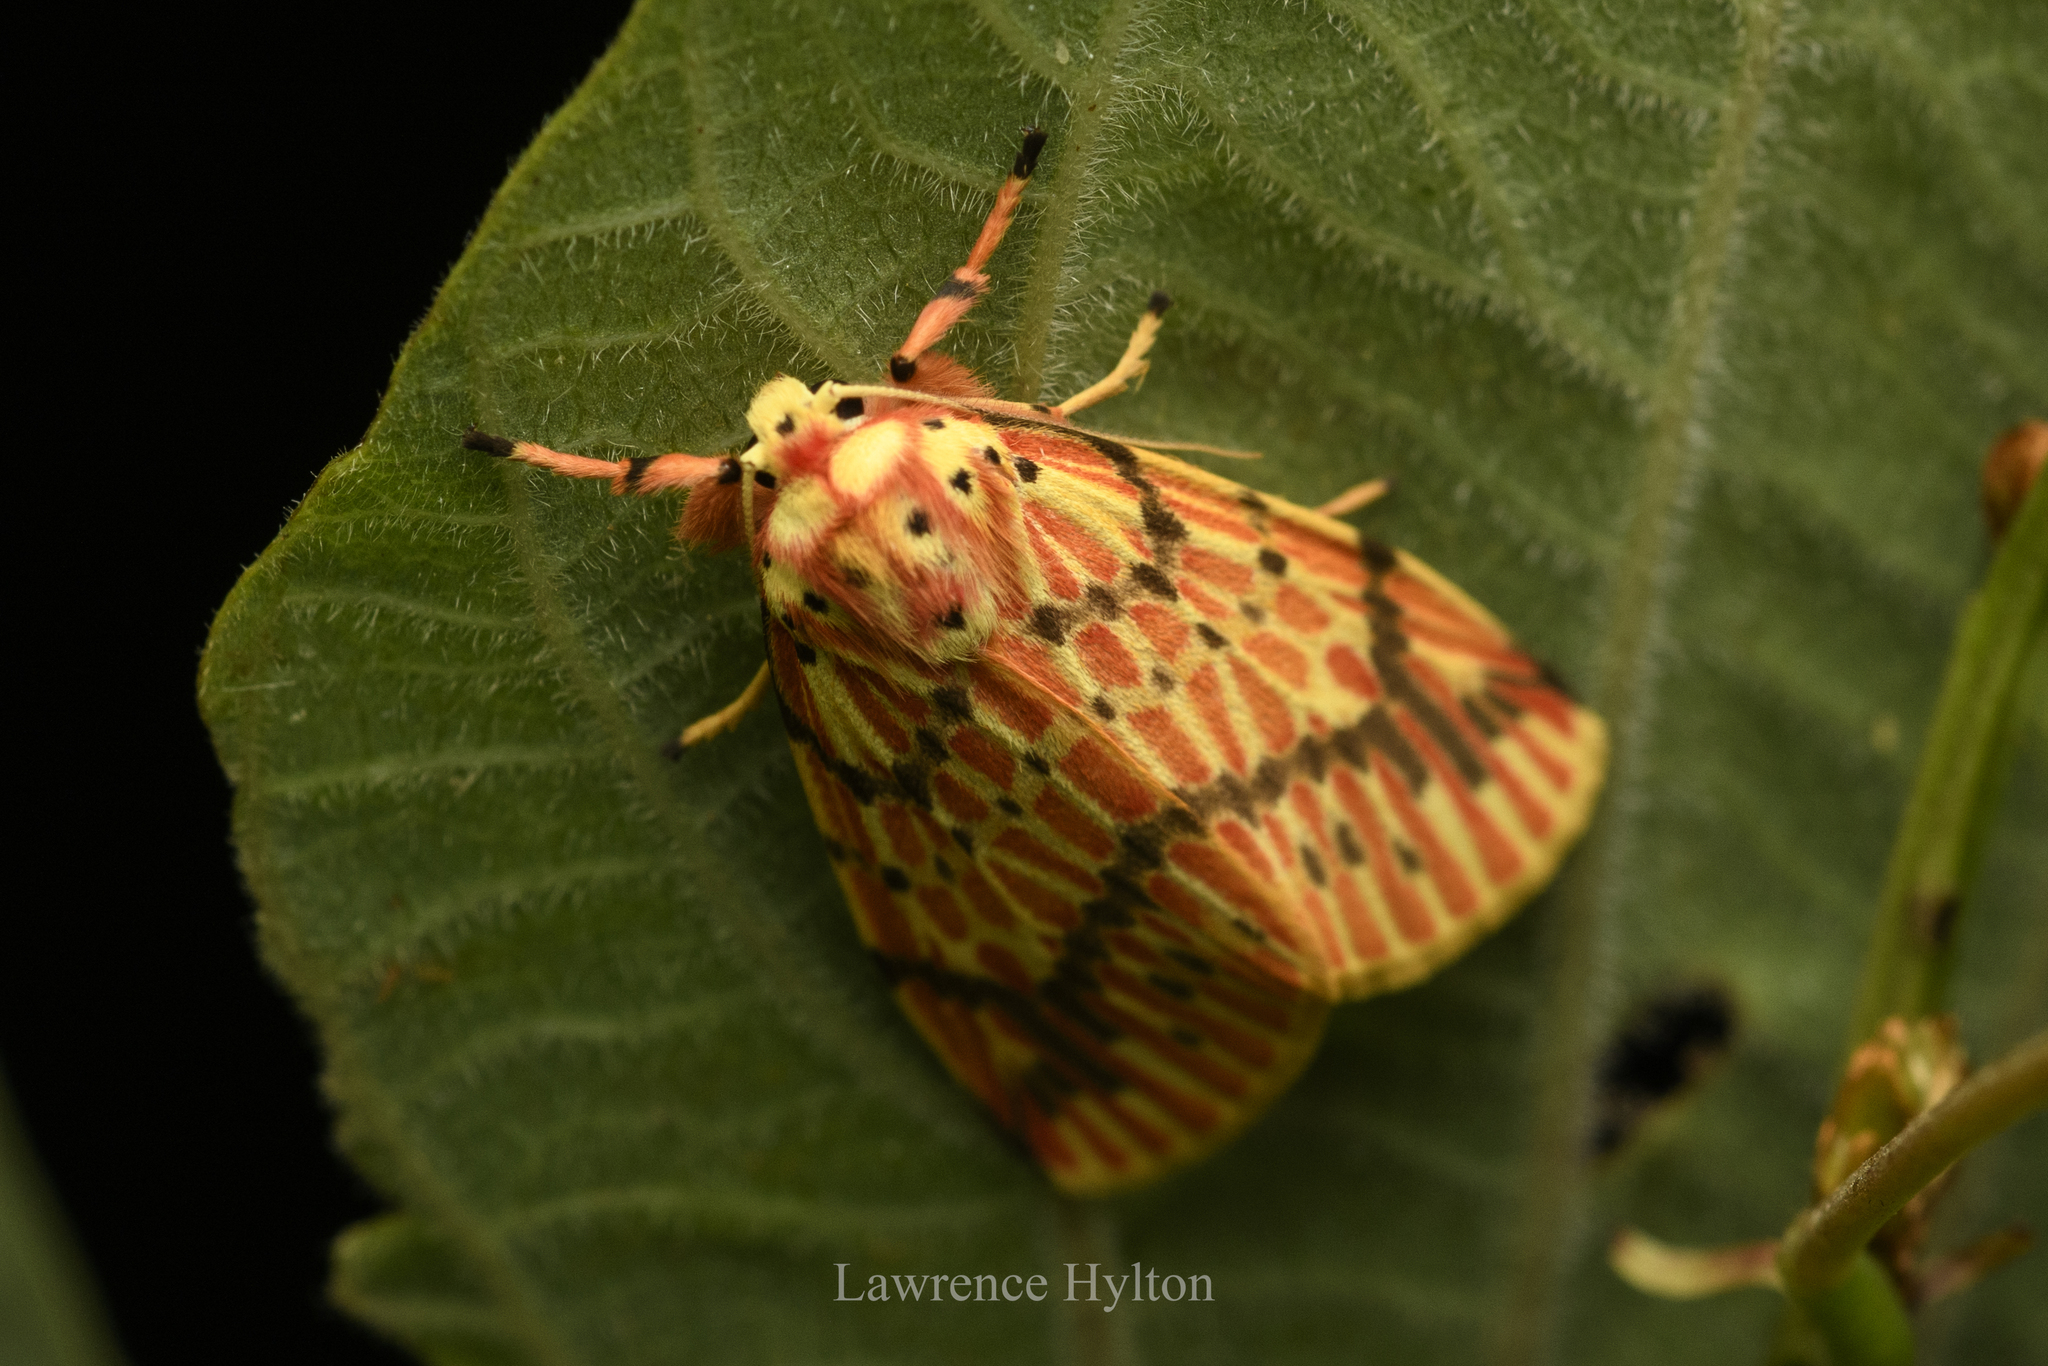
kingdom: Animalia
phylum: Arthropoda
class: Insecta
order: Lepidoptera
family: Erebidae
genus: Barsine
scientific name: Barsine striata
